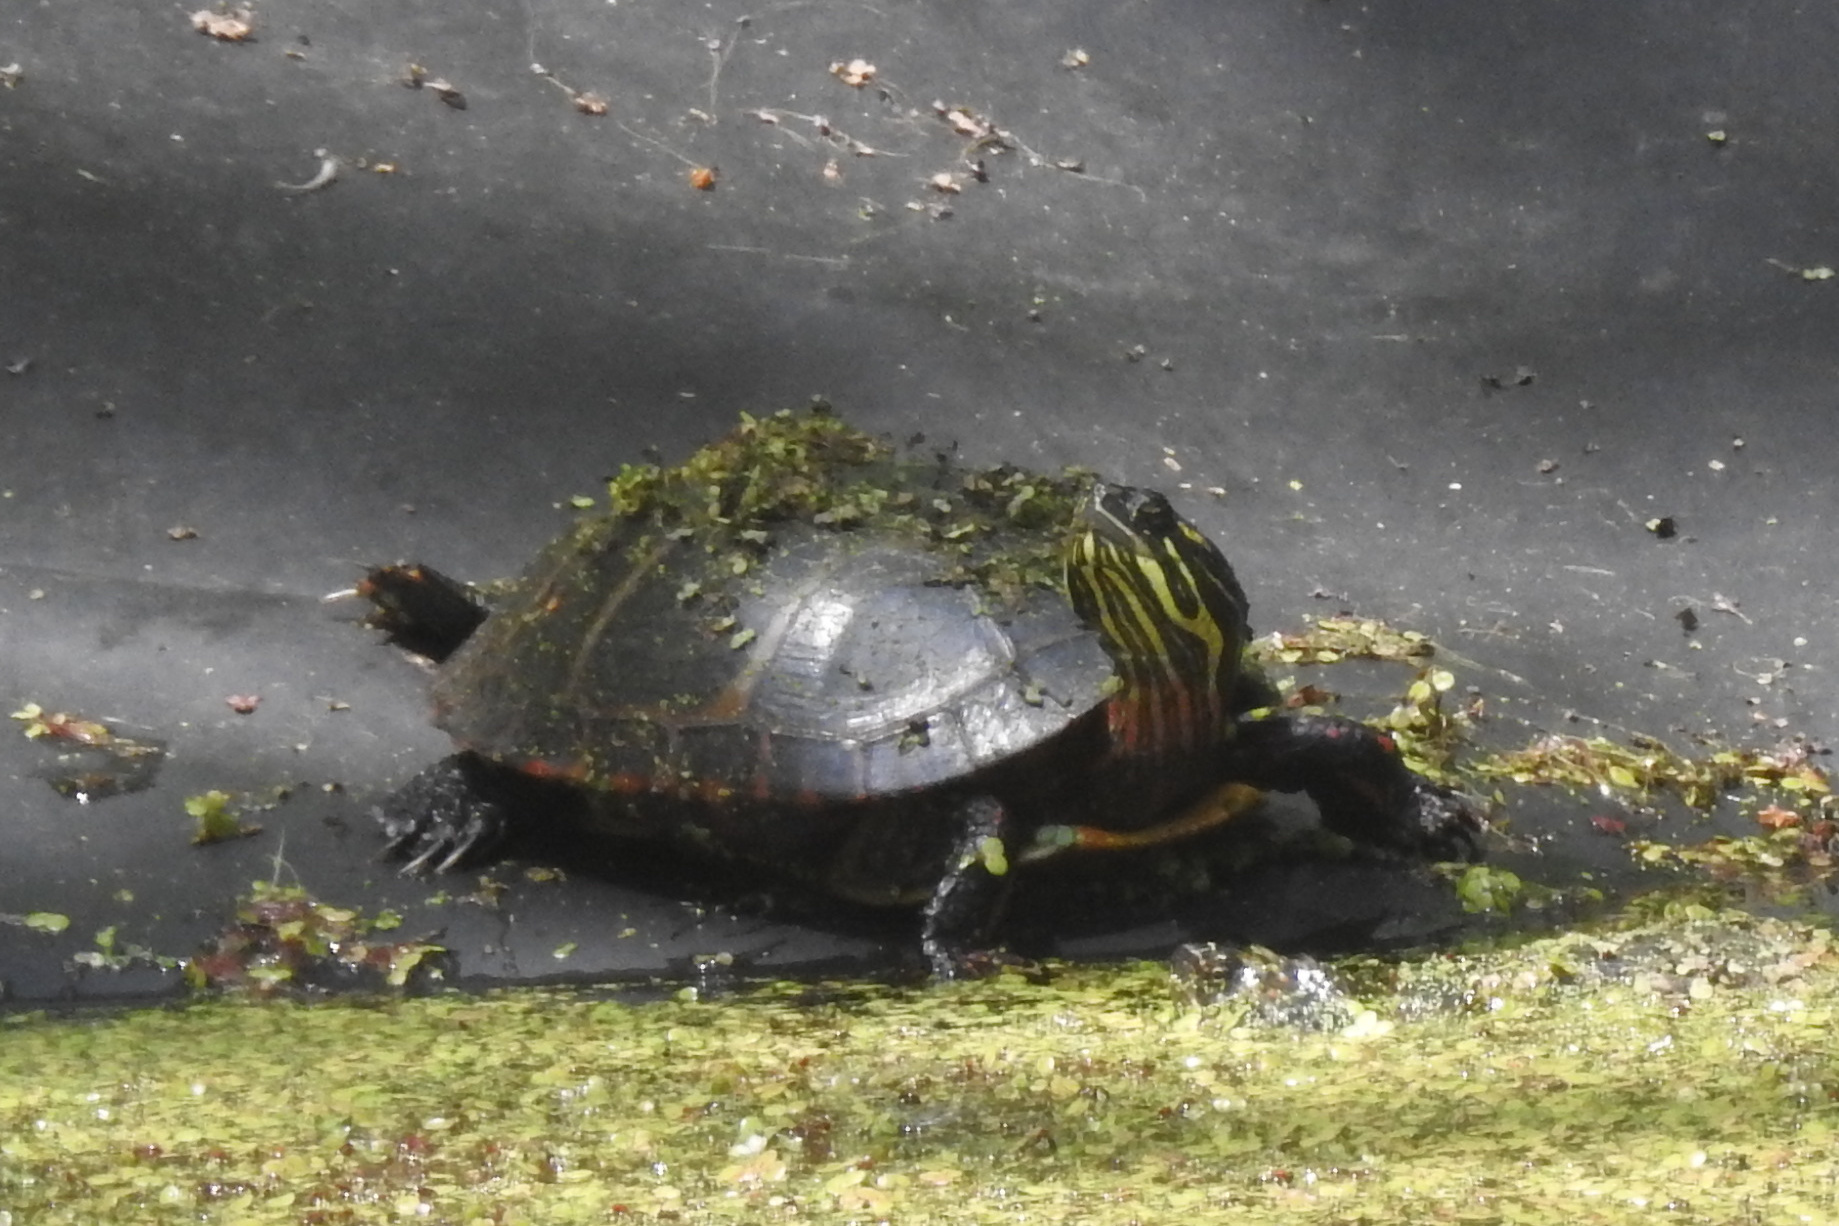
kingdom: Animalia
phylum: Chordata
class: Testudines
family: Emydidae
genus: Chrysemys
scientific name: Chrysemys picta
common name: Painted turtle
